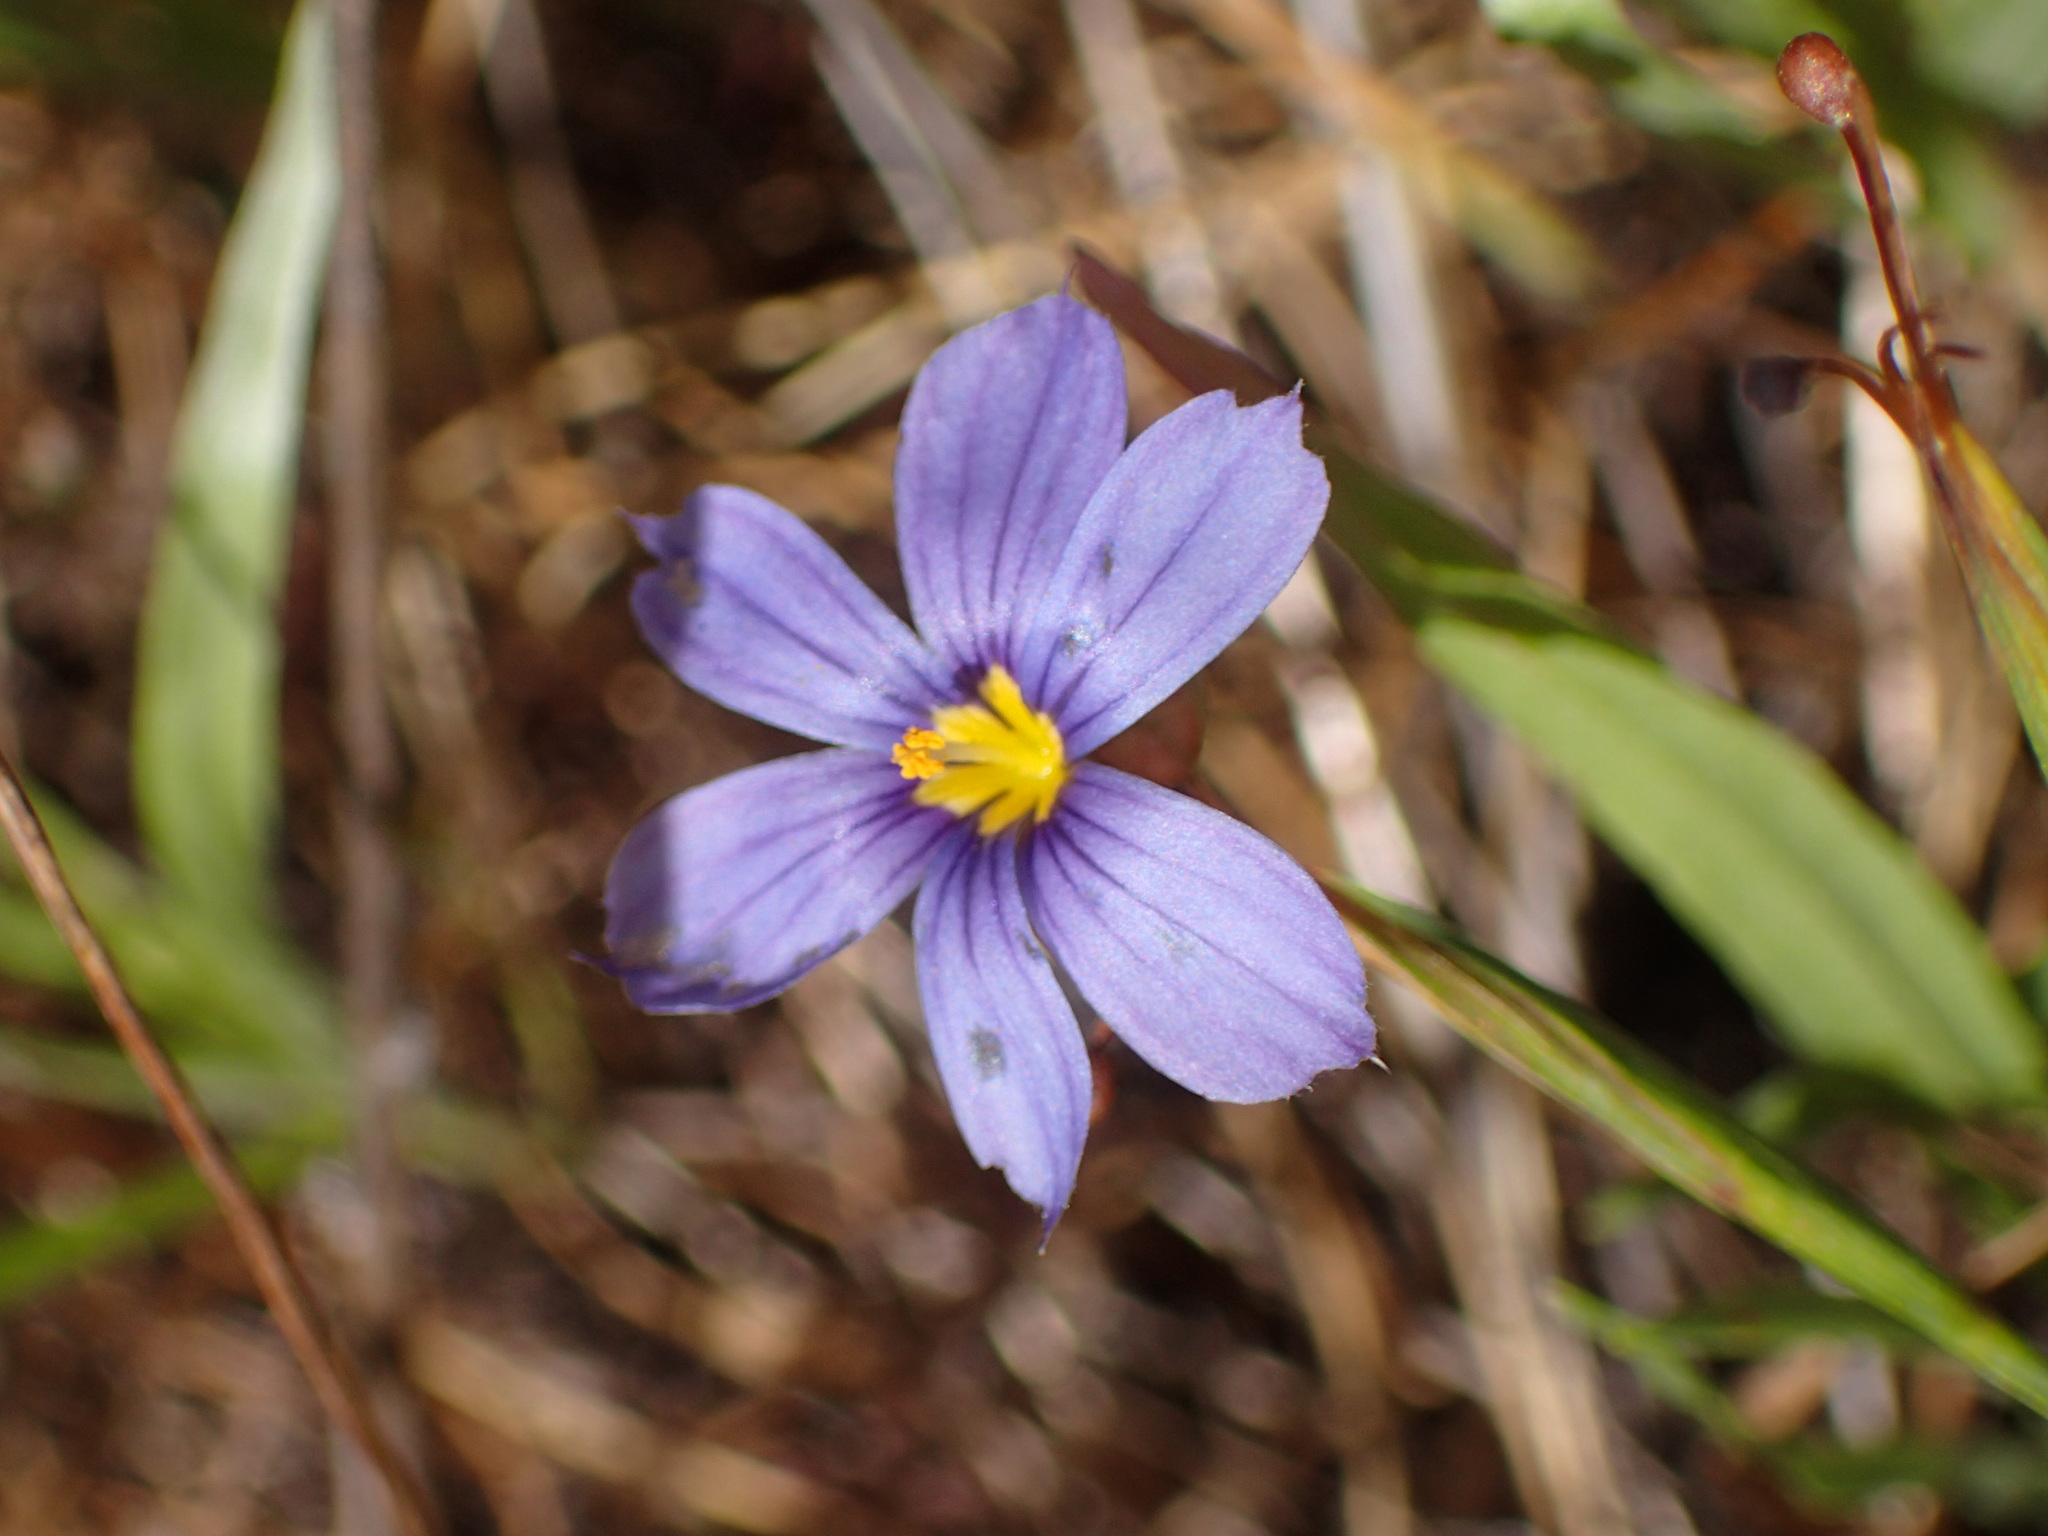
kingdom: Plantae
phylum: Tracheophyta
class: Liliopsida
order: Asparagales
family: Iridaceae
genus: Sisyrinchium
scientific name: Sisyrinchium bellum
